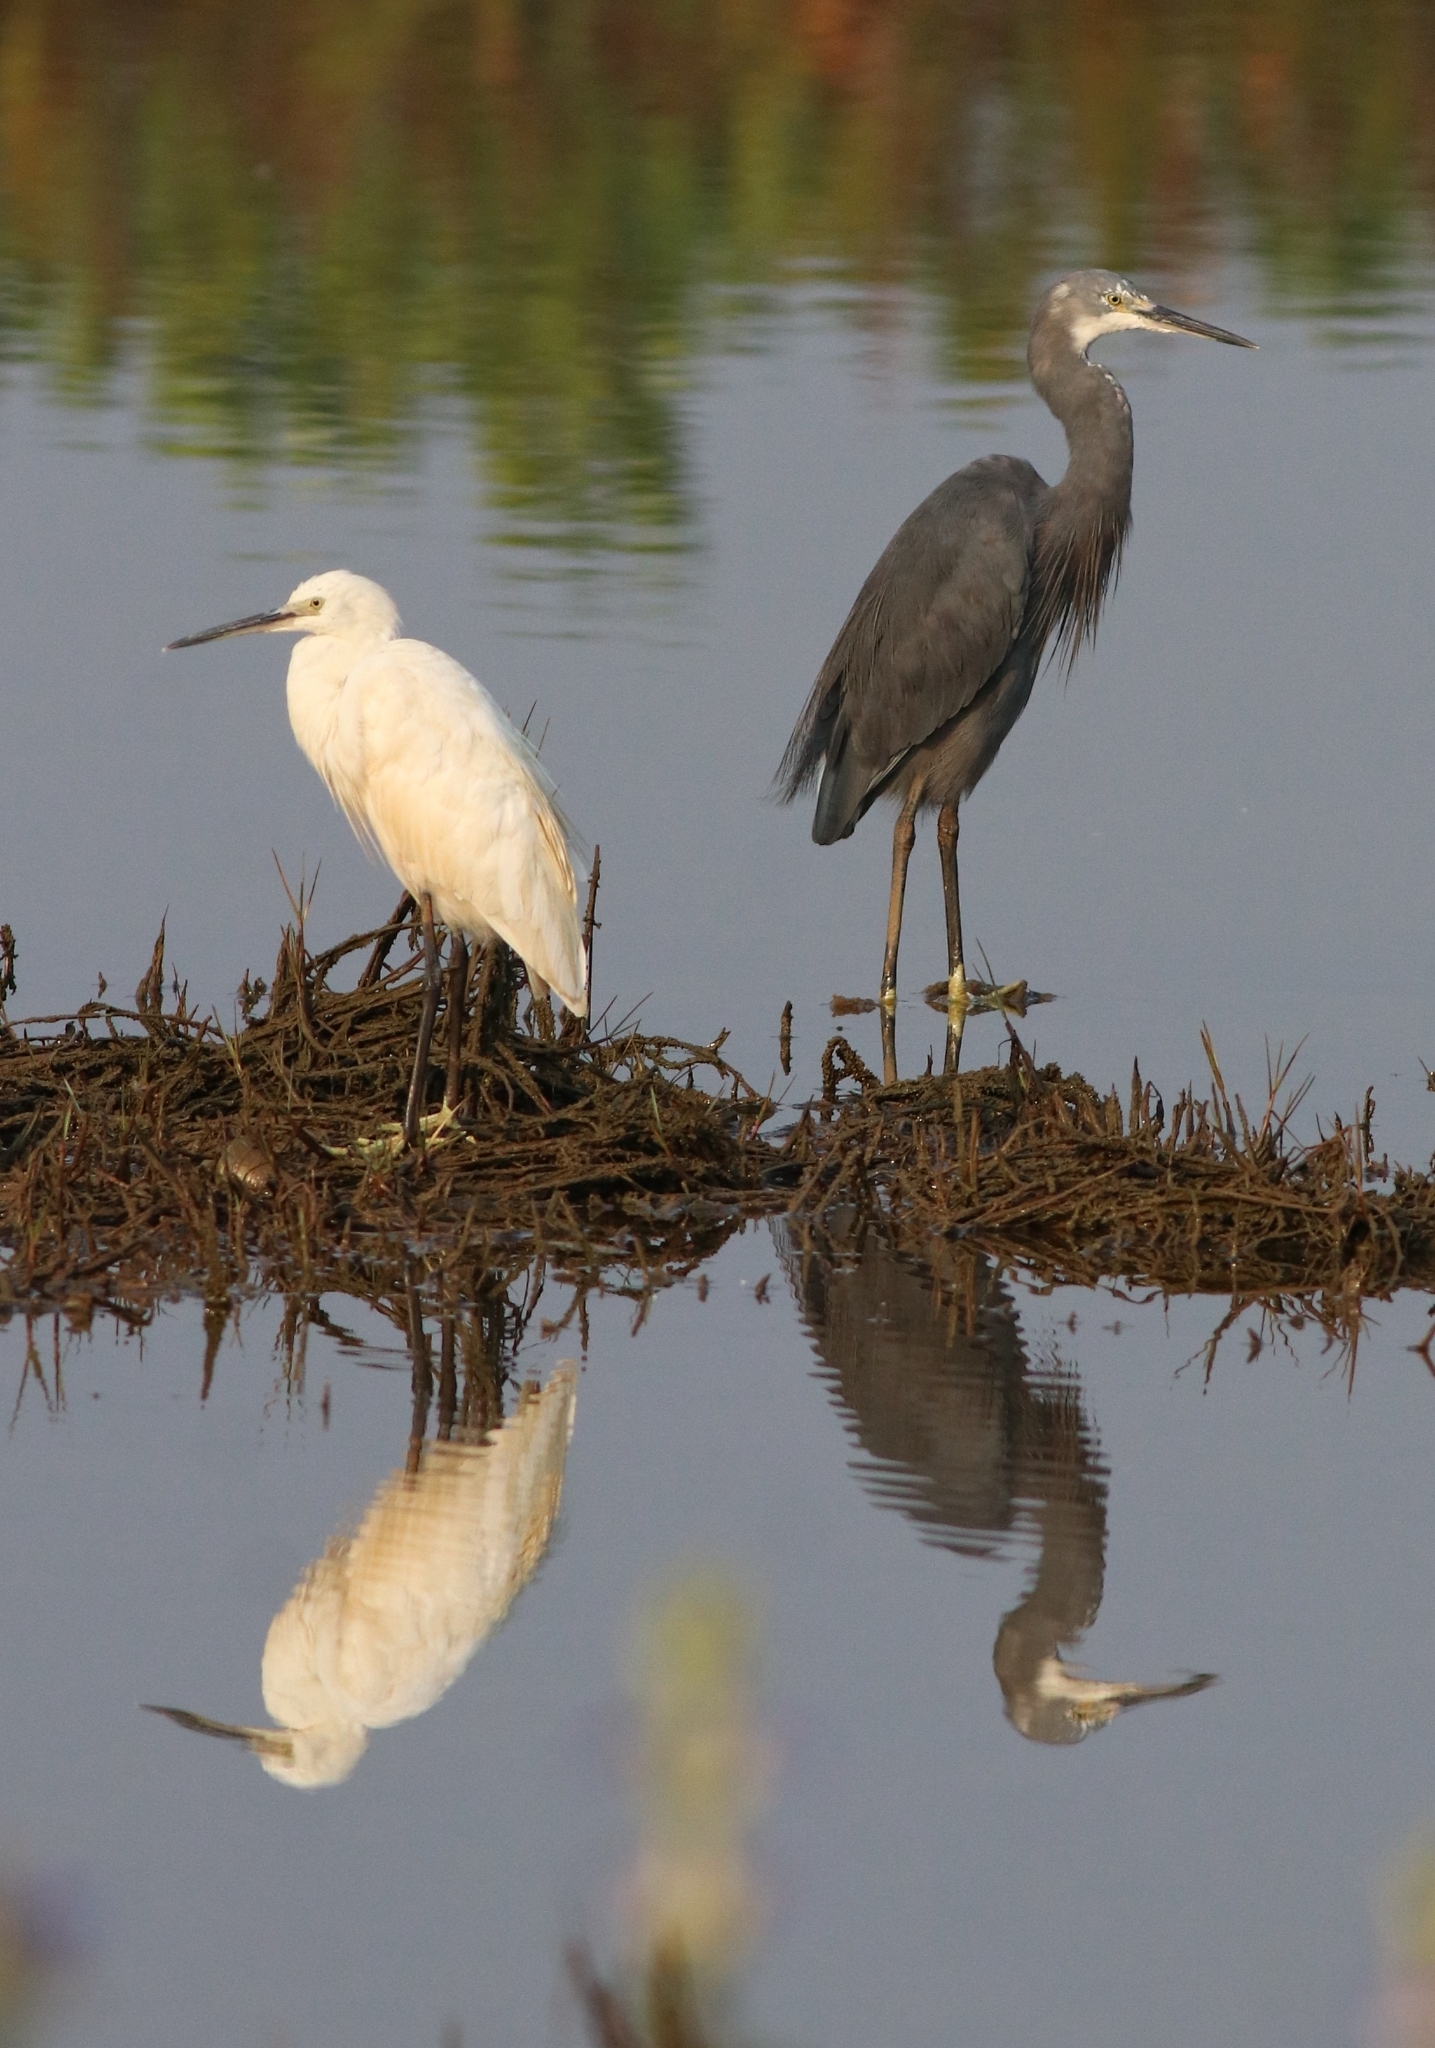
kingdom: Animalia
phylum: Chordata
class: Aves
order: Pelecaniformes
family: Ardeidae
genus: Egretta
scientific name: Egretta garzetta
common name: Little egret
